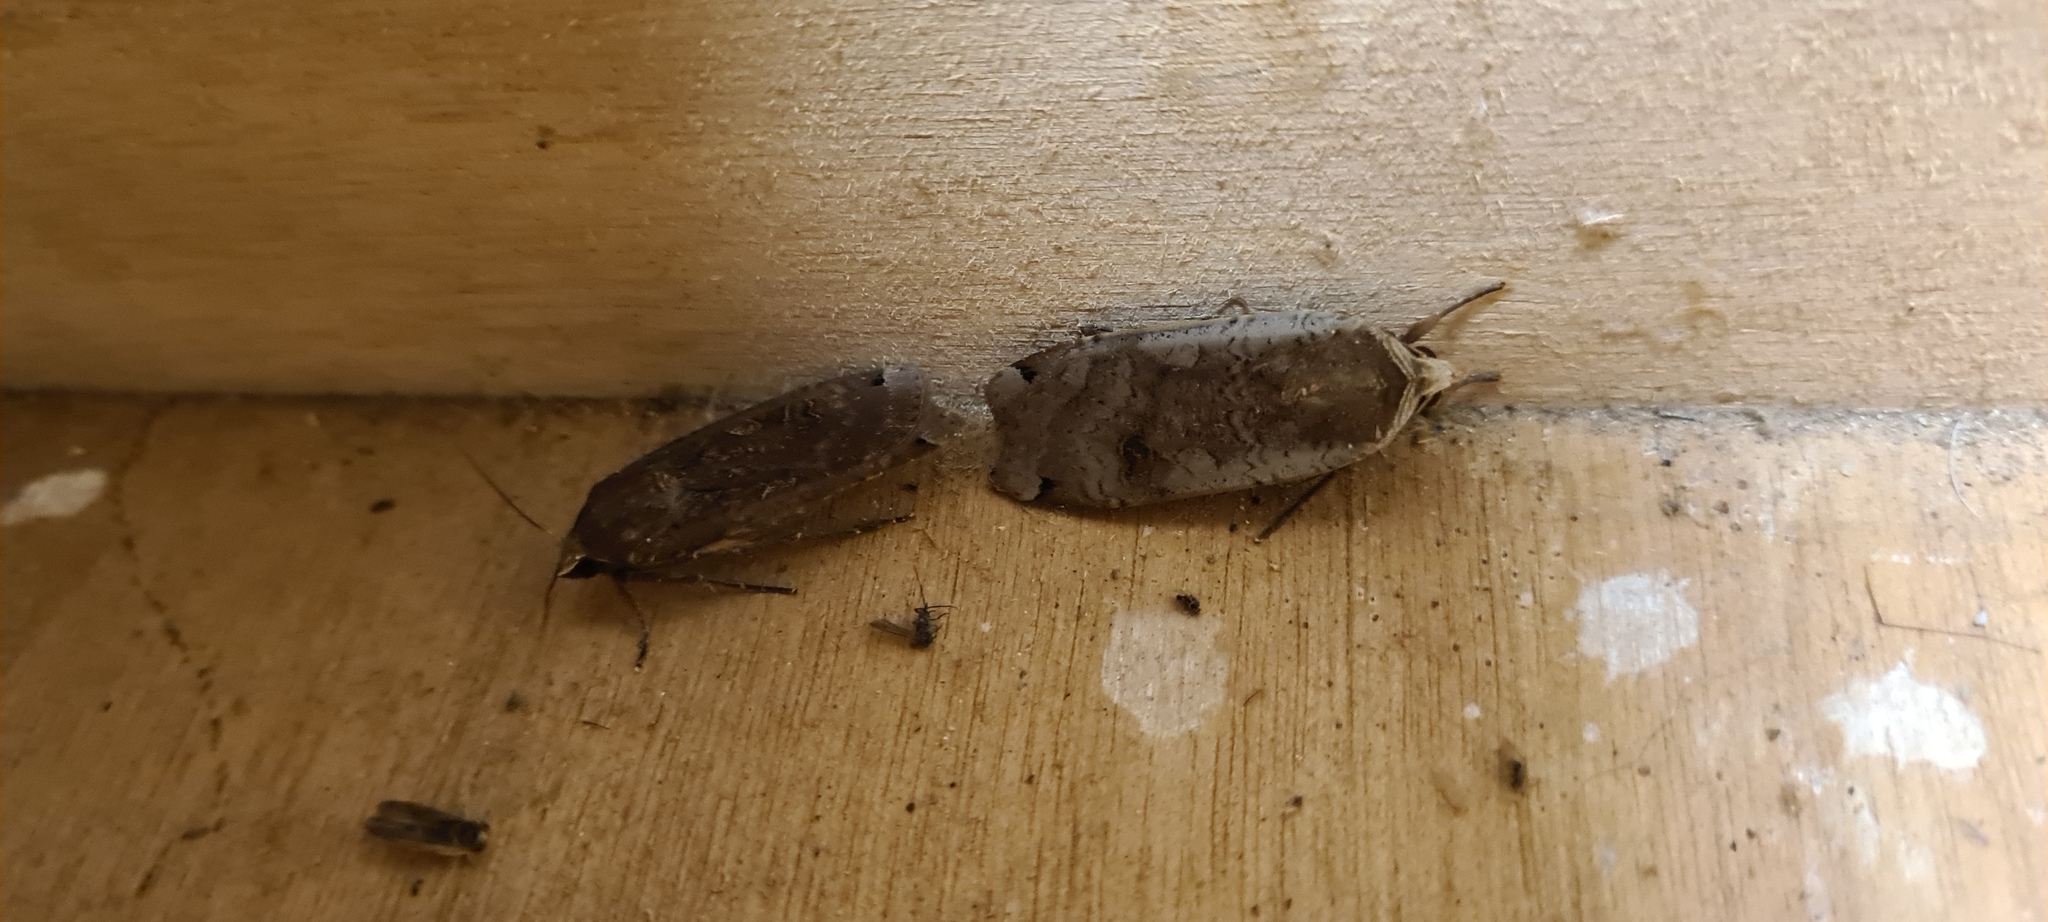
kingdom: Animalia
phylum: Arthropoda
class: Insecta
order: Lepidoptera
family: Noctuidae
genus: Noctua
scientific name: Noctua pronuba
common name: Large yellow underwing
